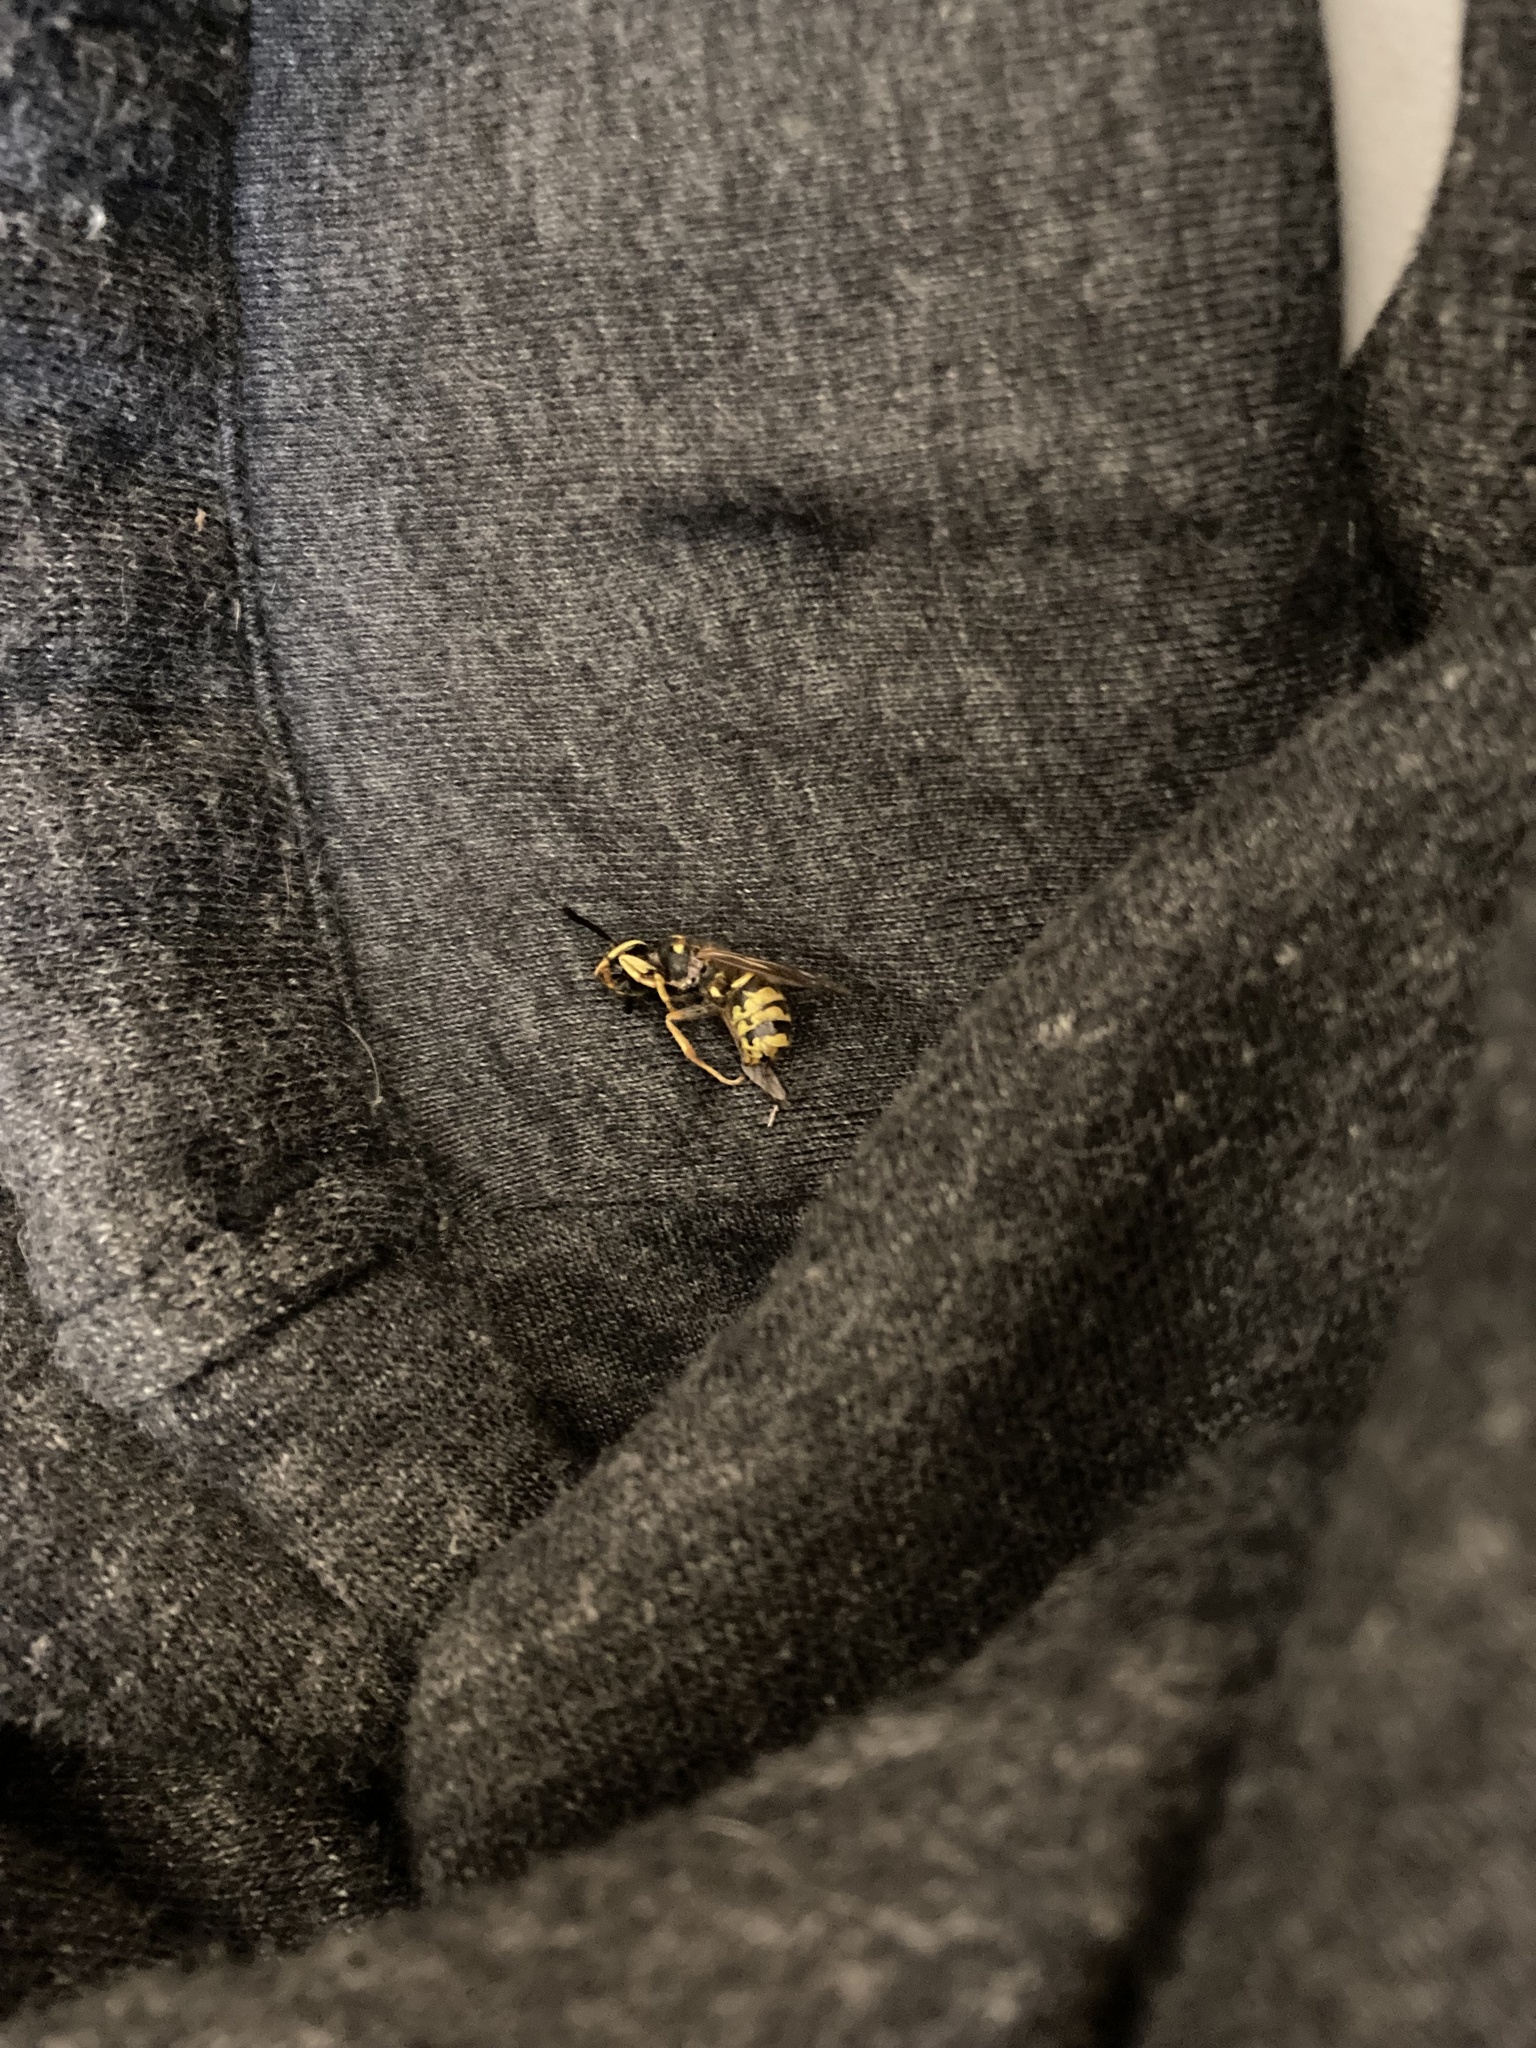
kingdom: Animalia
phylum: Arthropoda
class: Insecta
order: Hymenoptera
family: Vespidae
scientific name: Vespidae
